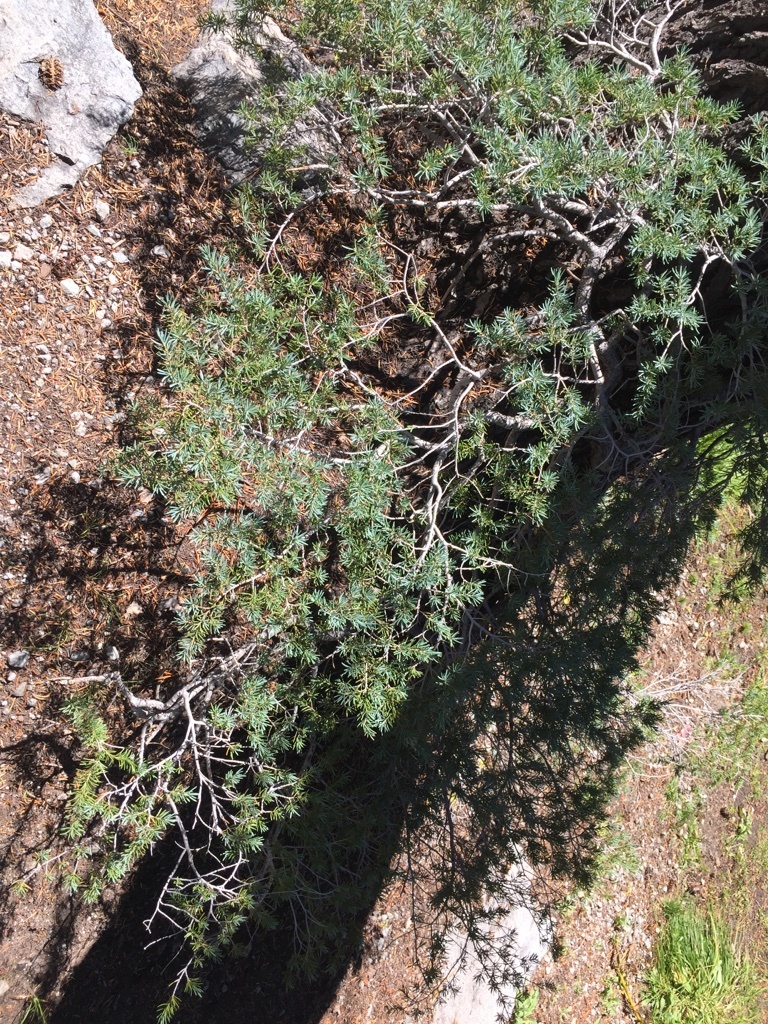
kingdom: Plantae
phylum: Tracheophyta
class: Pinopsida
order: Pinales
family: Pinaceae
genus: Tsuga
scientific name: Tsuga mertensiana
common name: Mountain hemlock
